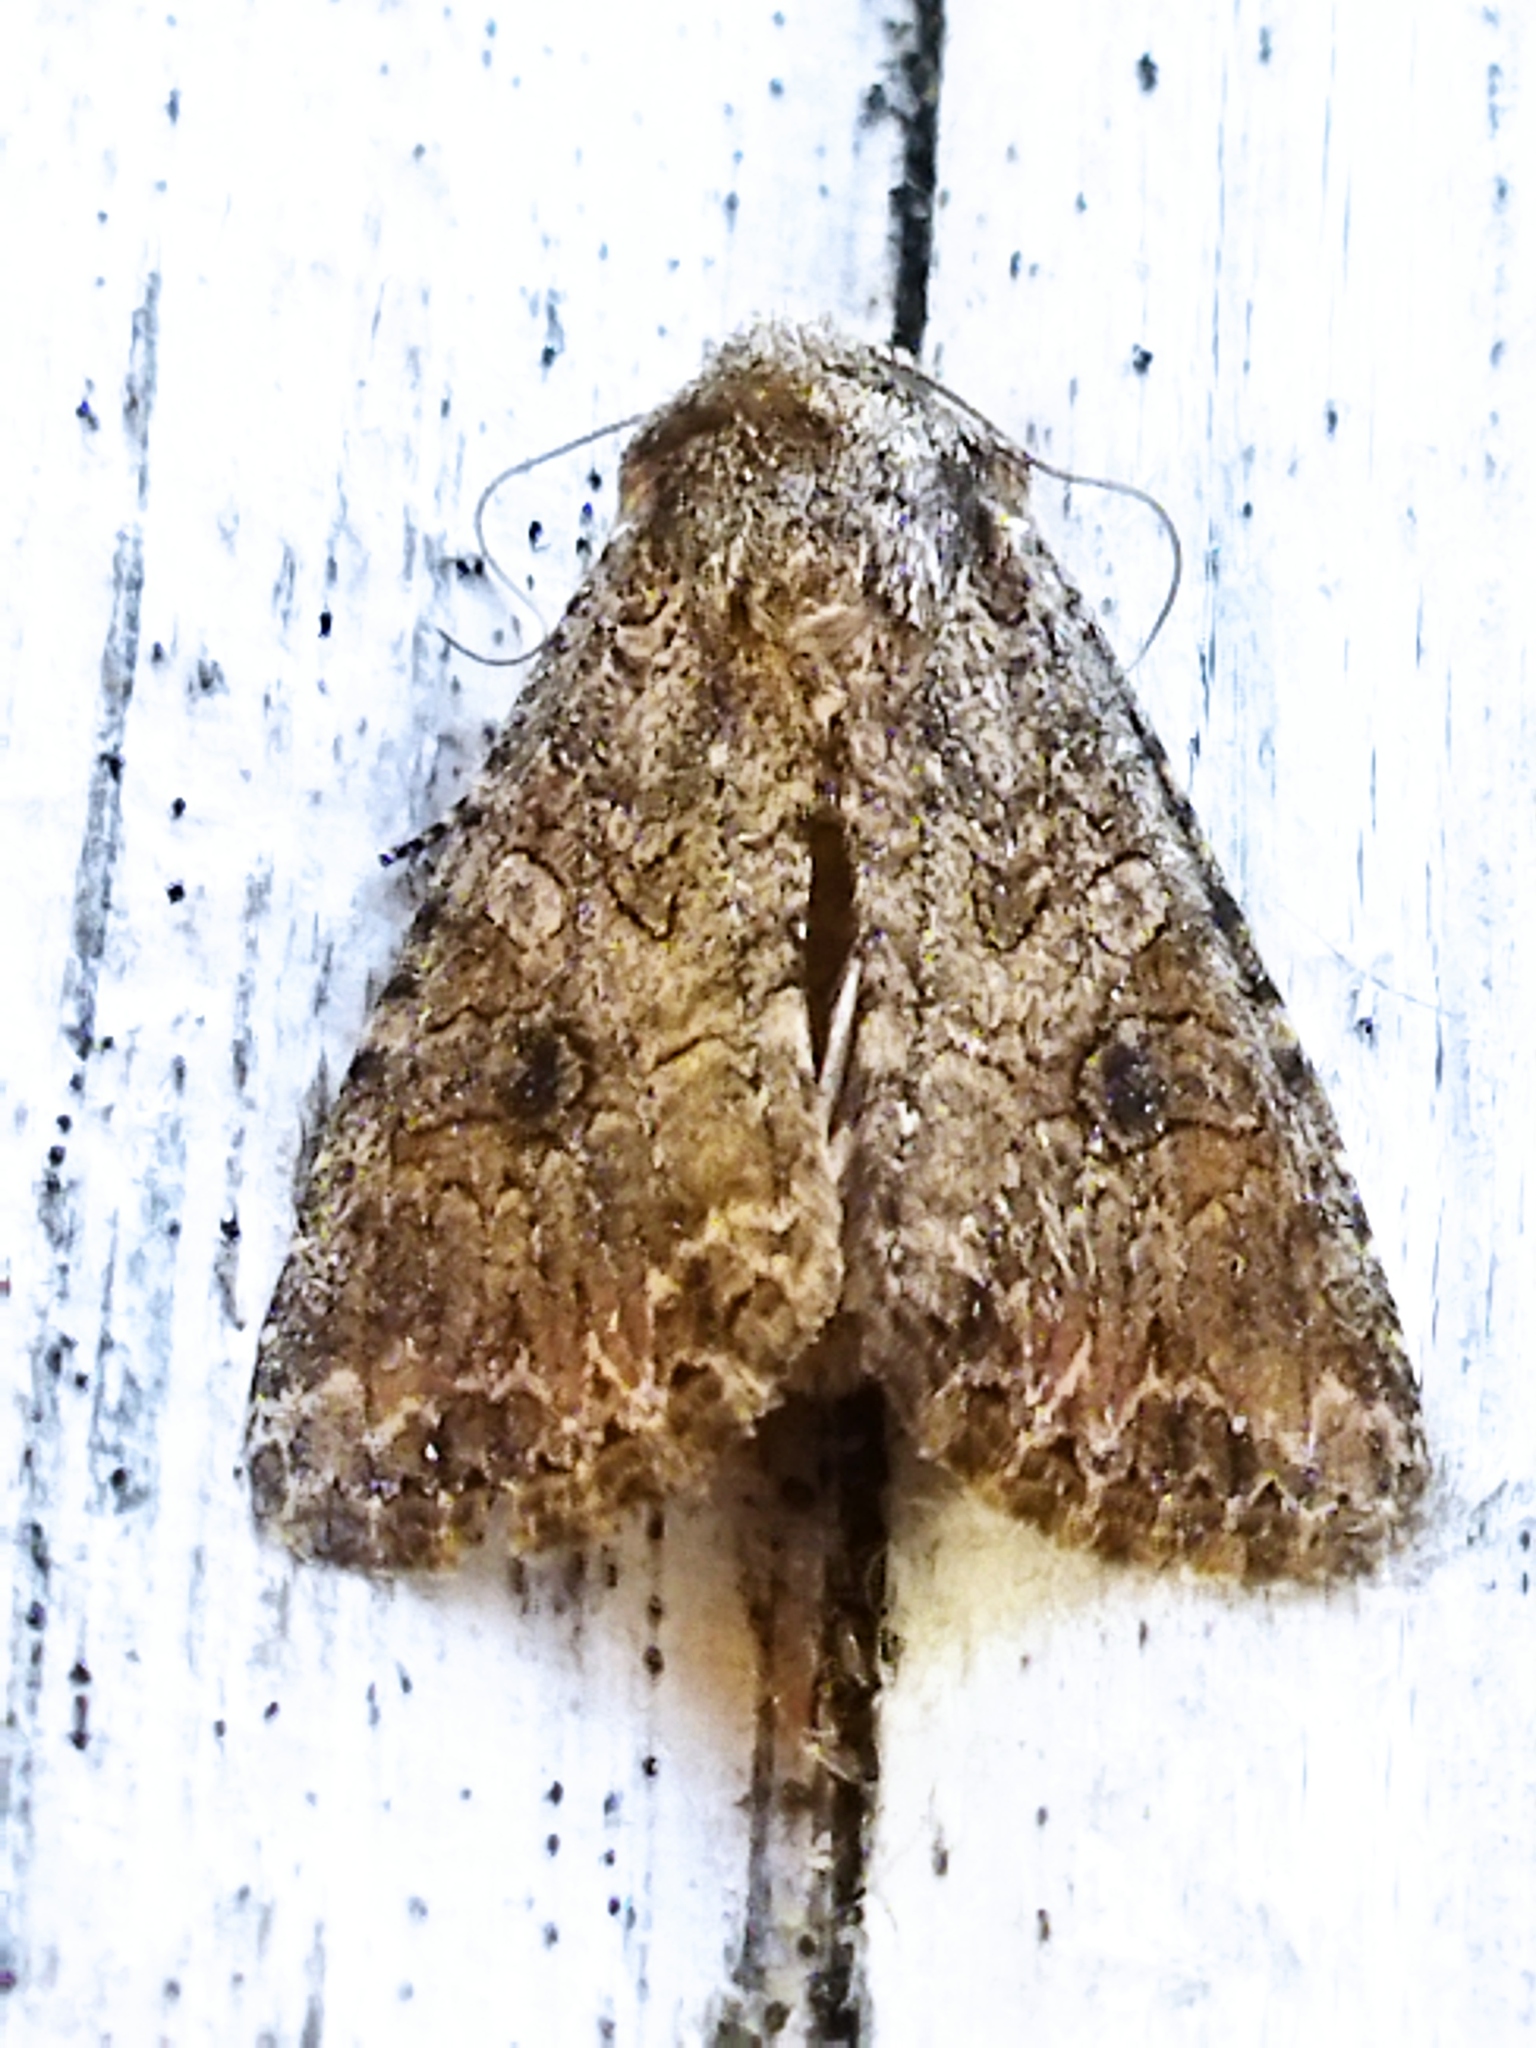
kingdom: Animalia
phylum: Arthropoda
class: Insecta
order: Lepidoptera
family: Noctuidae
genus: Anarta
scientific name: Anarta trifolii
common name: Clover cutworm moth
